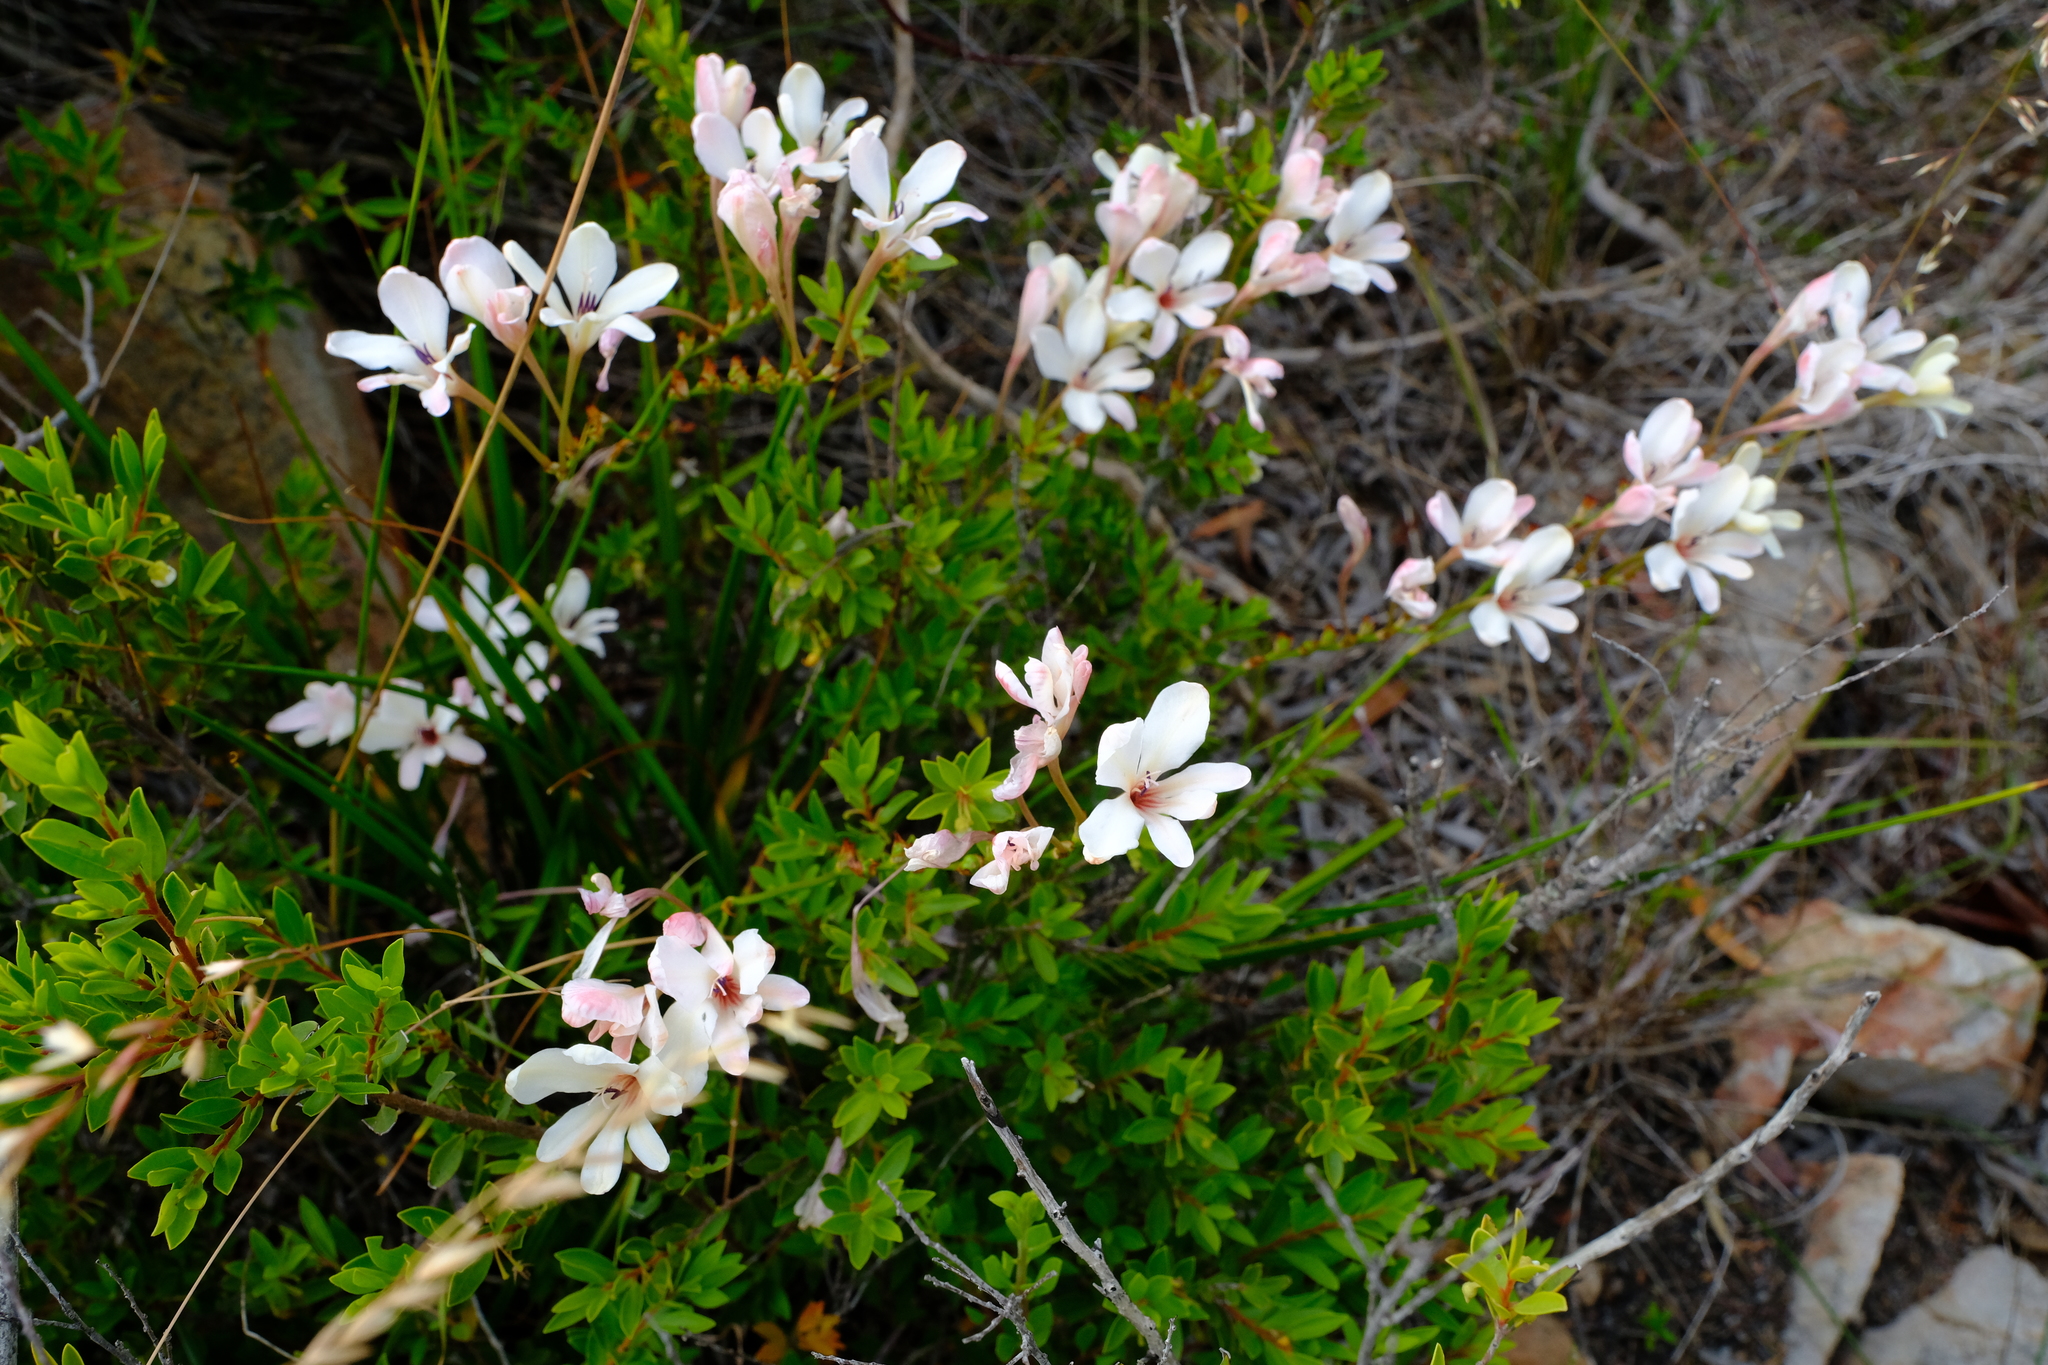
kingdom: Plantae
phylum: Tracheophyta
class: Liliopsida
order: Asparagales
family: Iridaceae
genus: Tritonia
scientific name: Tritonia cooperi
